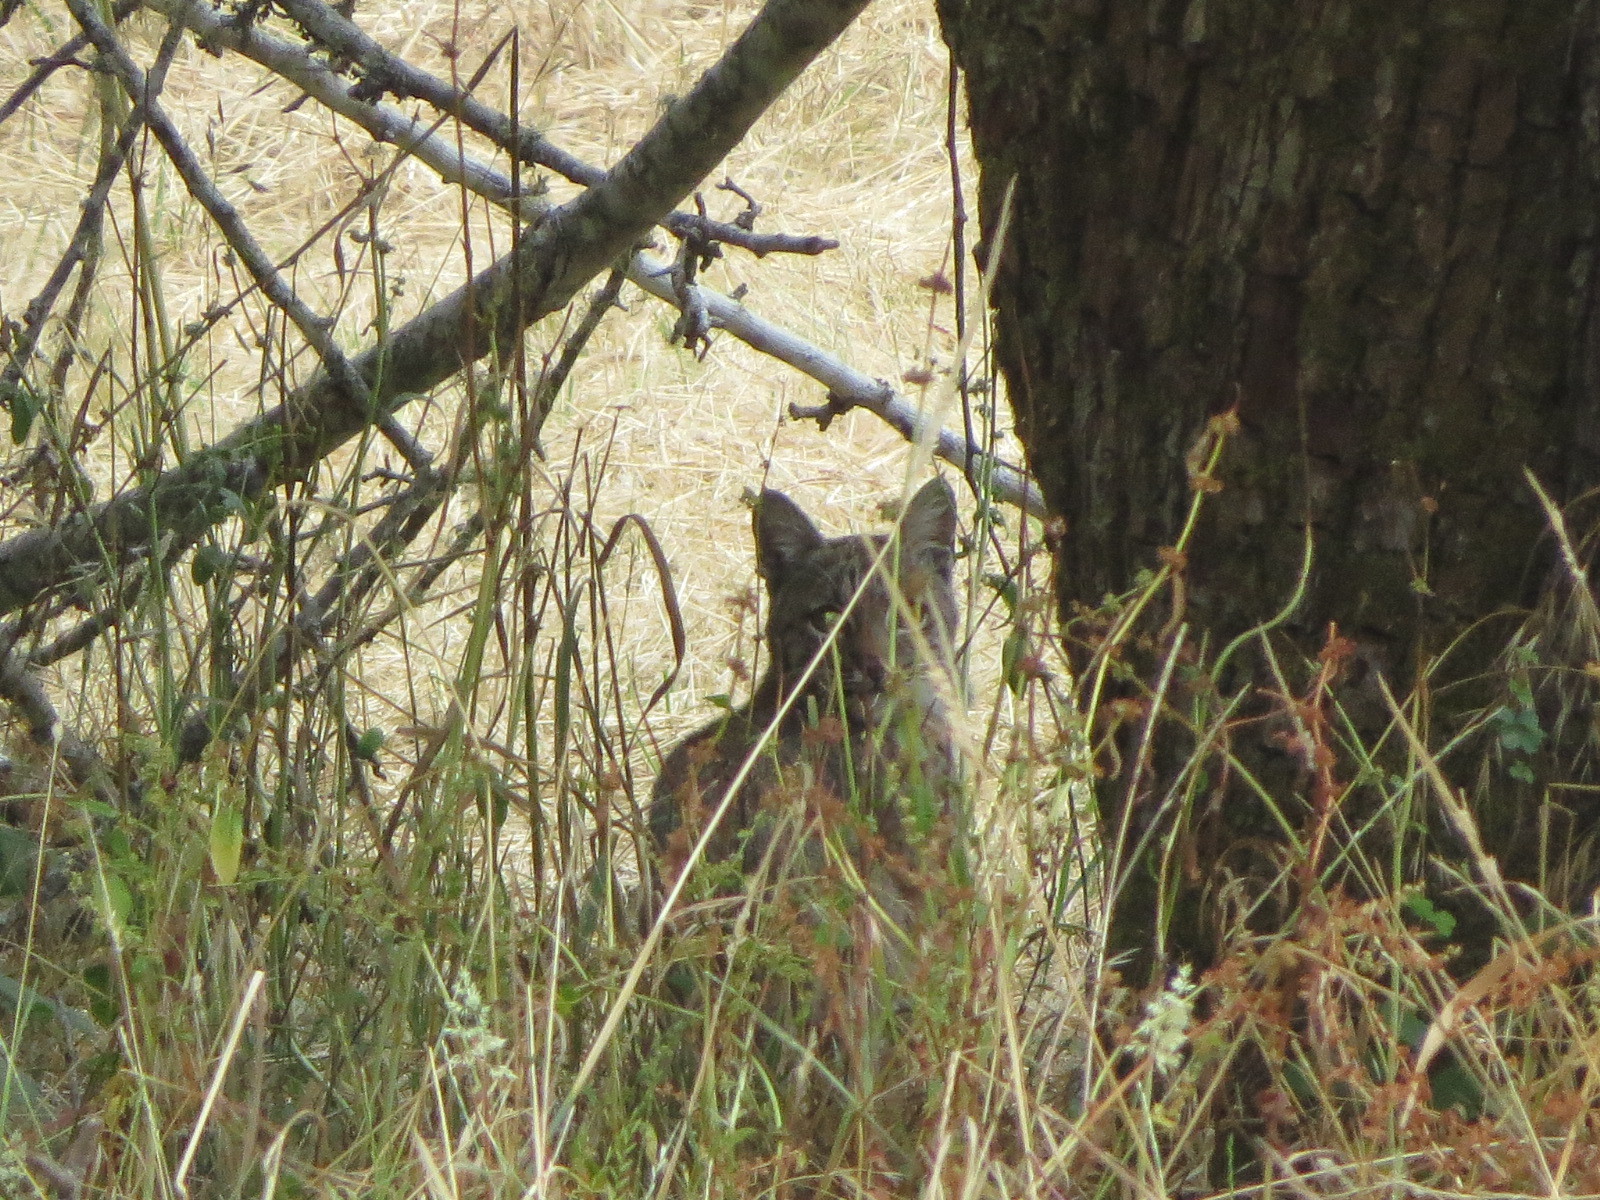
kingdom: Animalia
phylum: Chordata
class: Mammalia
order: Carnivora
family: Felidae
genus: Lynx
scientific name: Lynx rufus
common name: Bobcat
